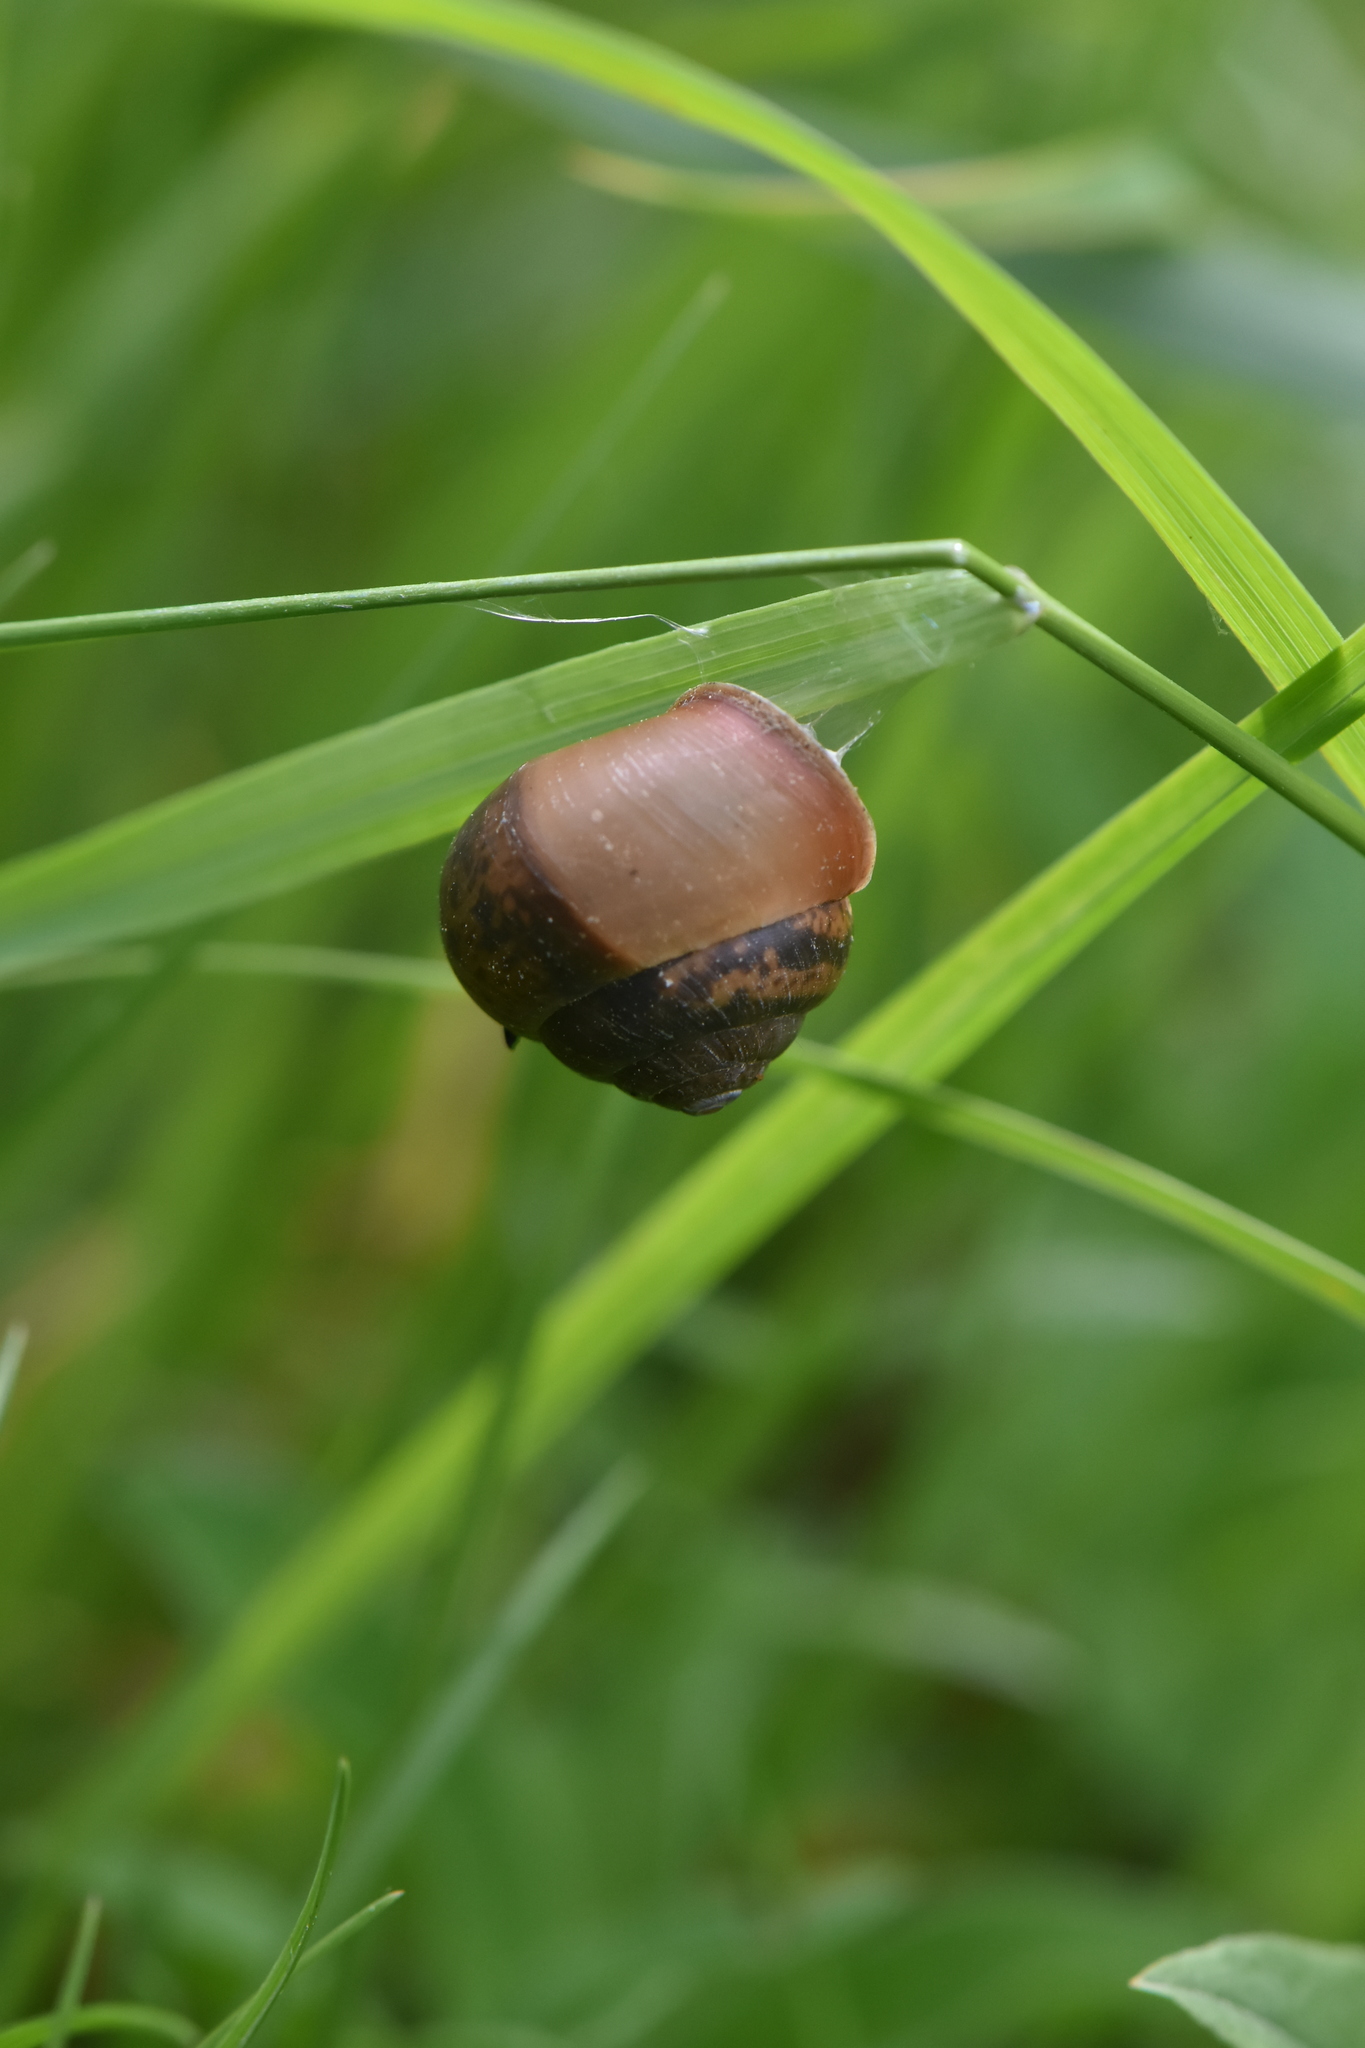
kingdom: Animalia
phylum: Mollusca
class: Gastropoda
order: Stylommatophora
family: Camaenidae
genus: Fruticicola
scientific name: Fruticicola fruticum
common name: Bush snail
